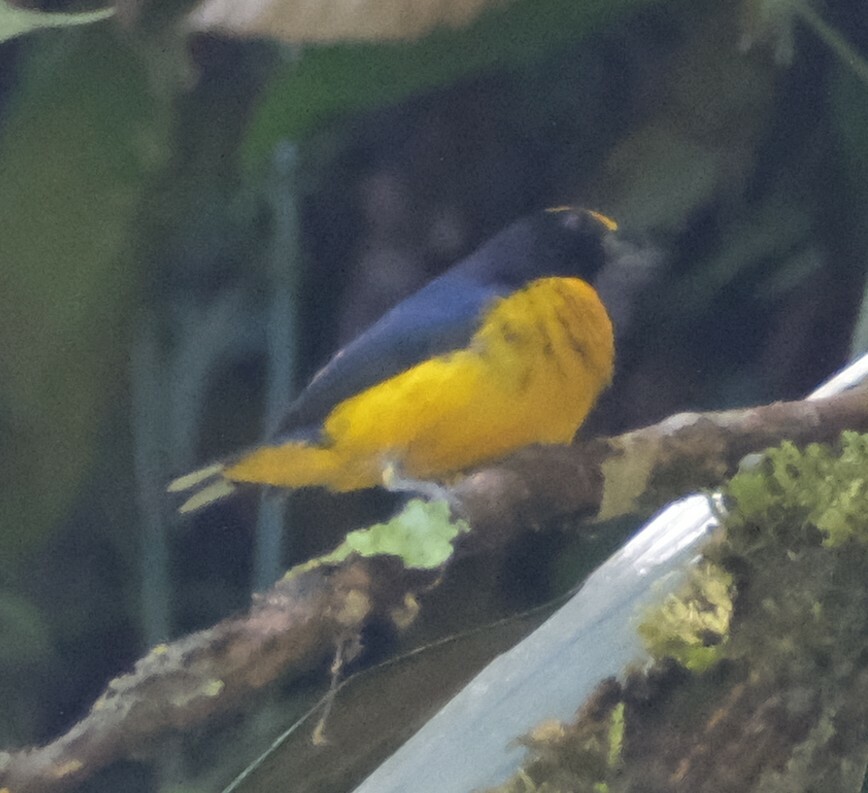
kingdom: Animalia
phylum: Chordata
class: Aves
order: Passeriformes
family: Fringillidae
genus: Euphonia
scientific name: Euphonia xanthogaster
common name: Orange-bellied euphonia
